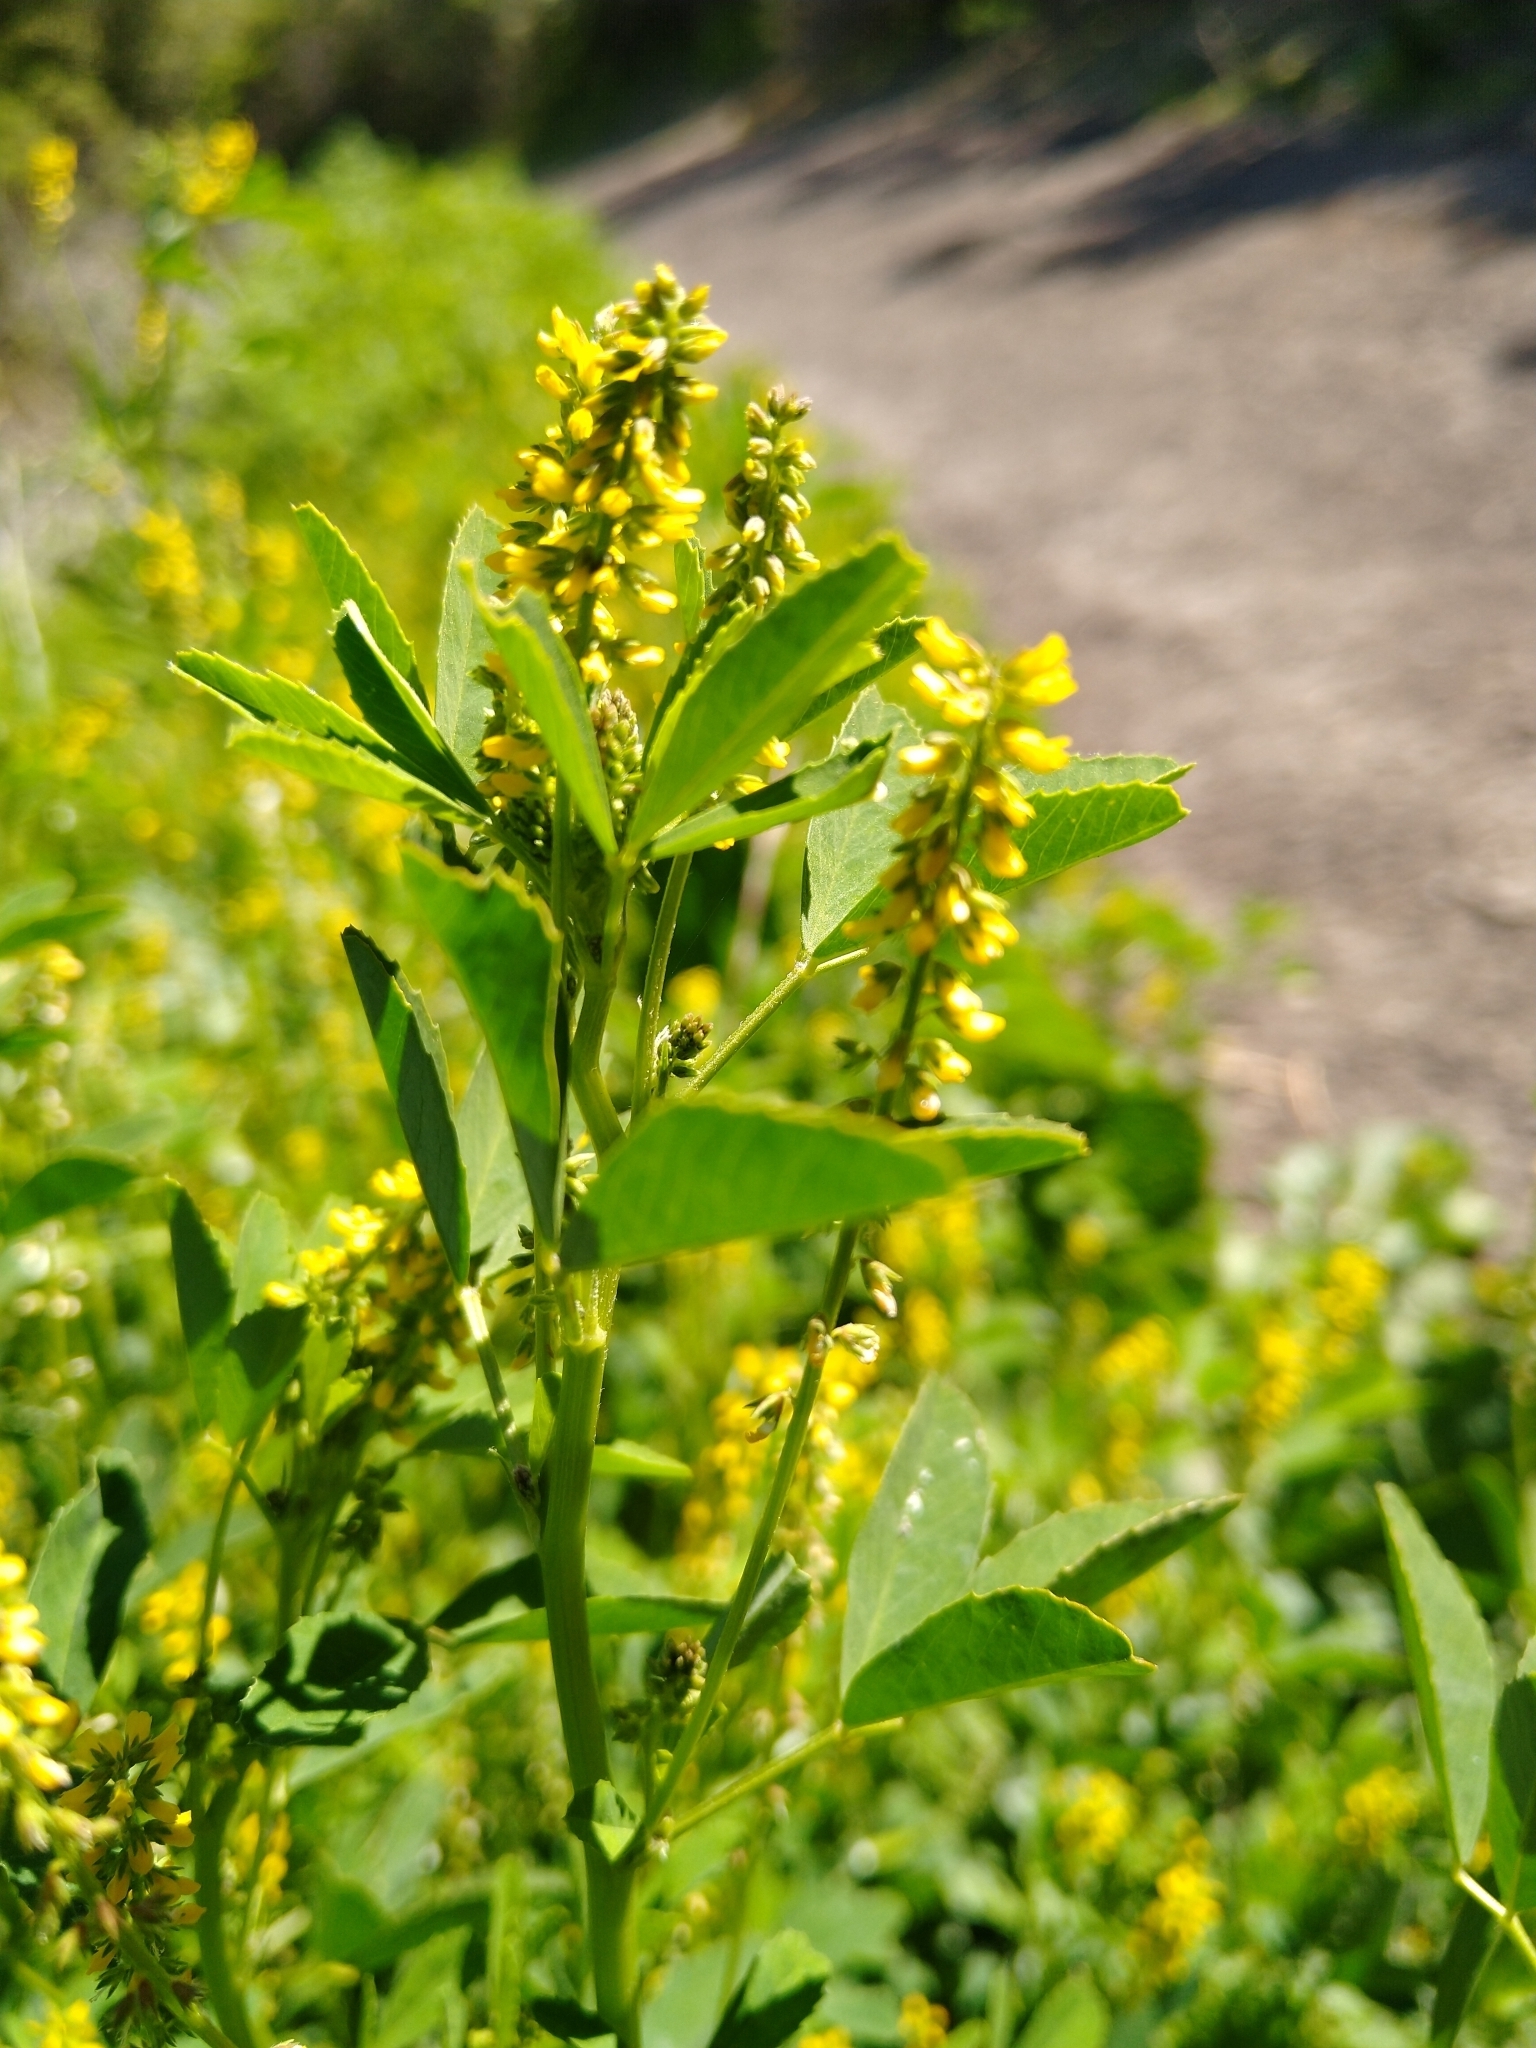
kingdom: Plantae
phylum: Tracheophyta
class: Magnoliopsida
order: Fabales
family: Fabaceae
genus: Melilotus
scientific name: Melilotus indicus
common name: Small melilot
